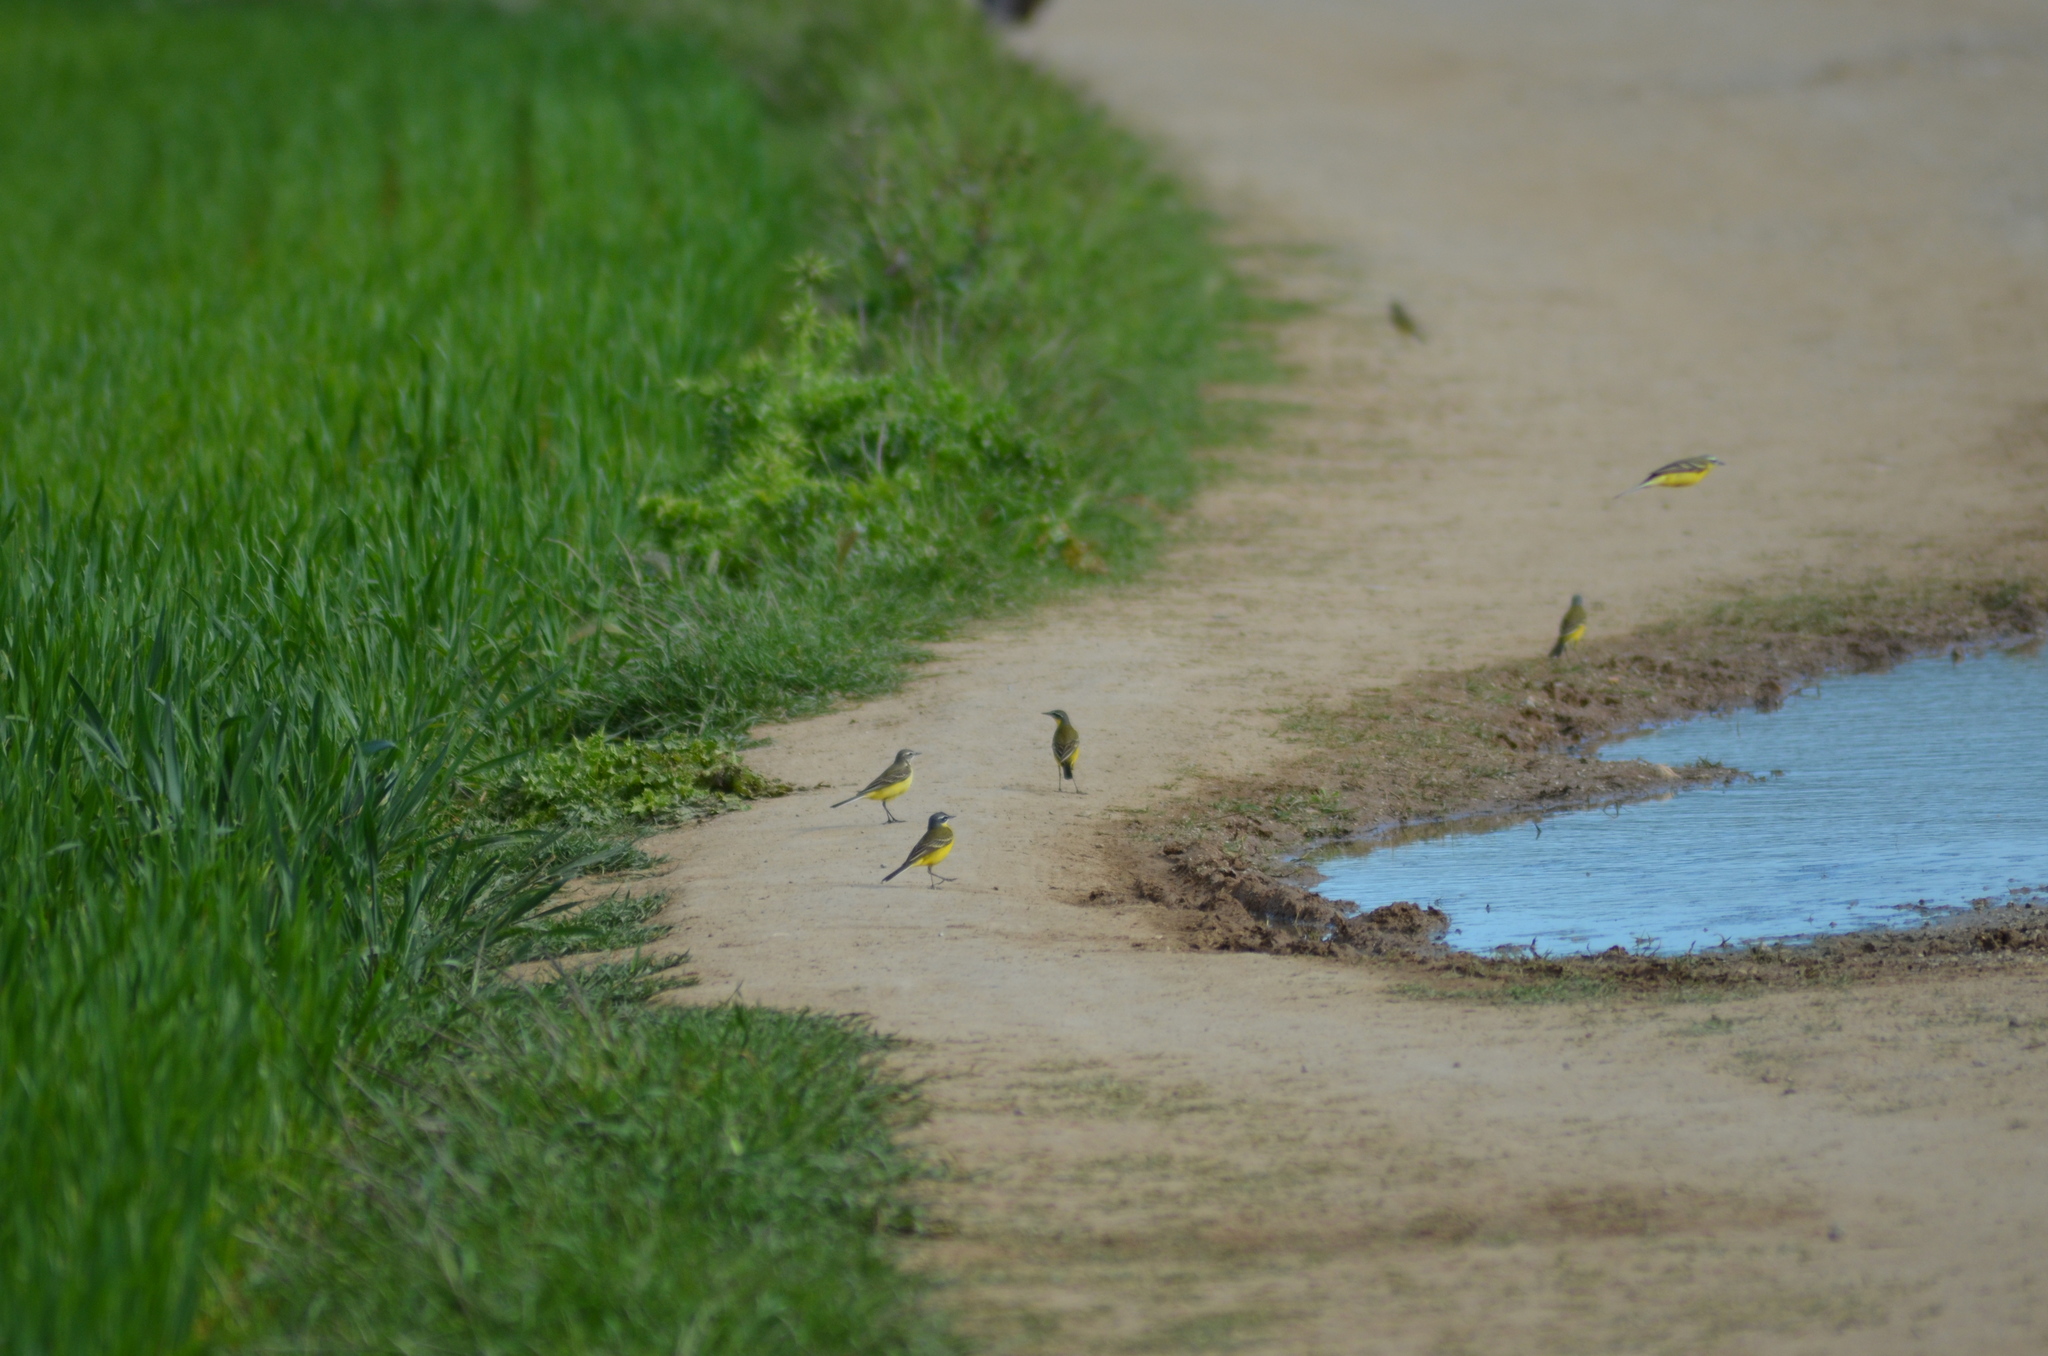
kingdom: Animalia
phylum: Chordata
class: Aves
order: Passeriformes
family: Motacillidae
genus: Motacilla
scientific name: Motacilla flava
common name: Western yellow wagtail
